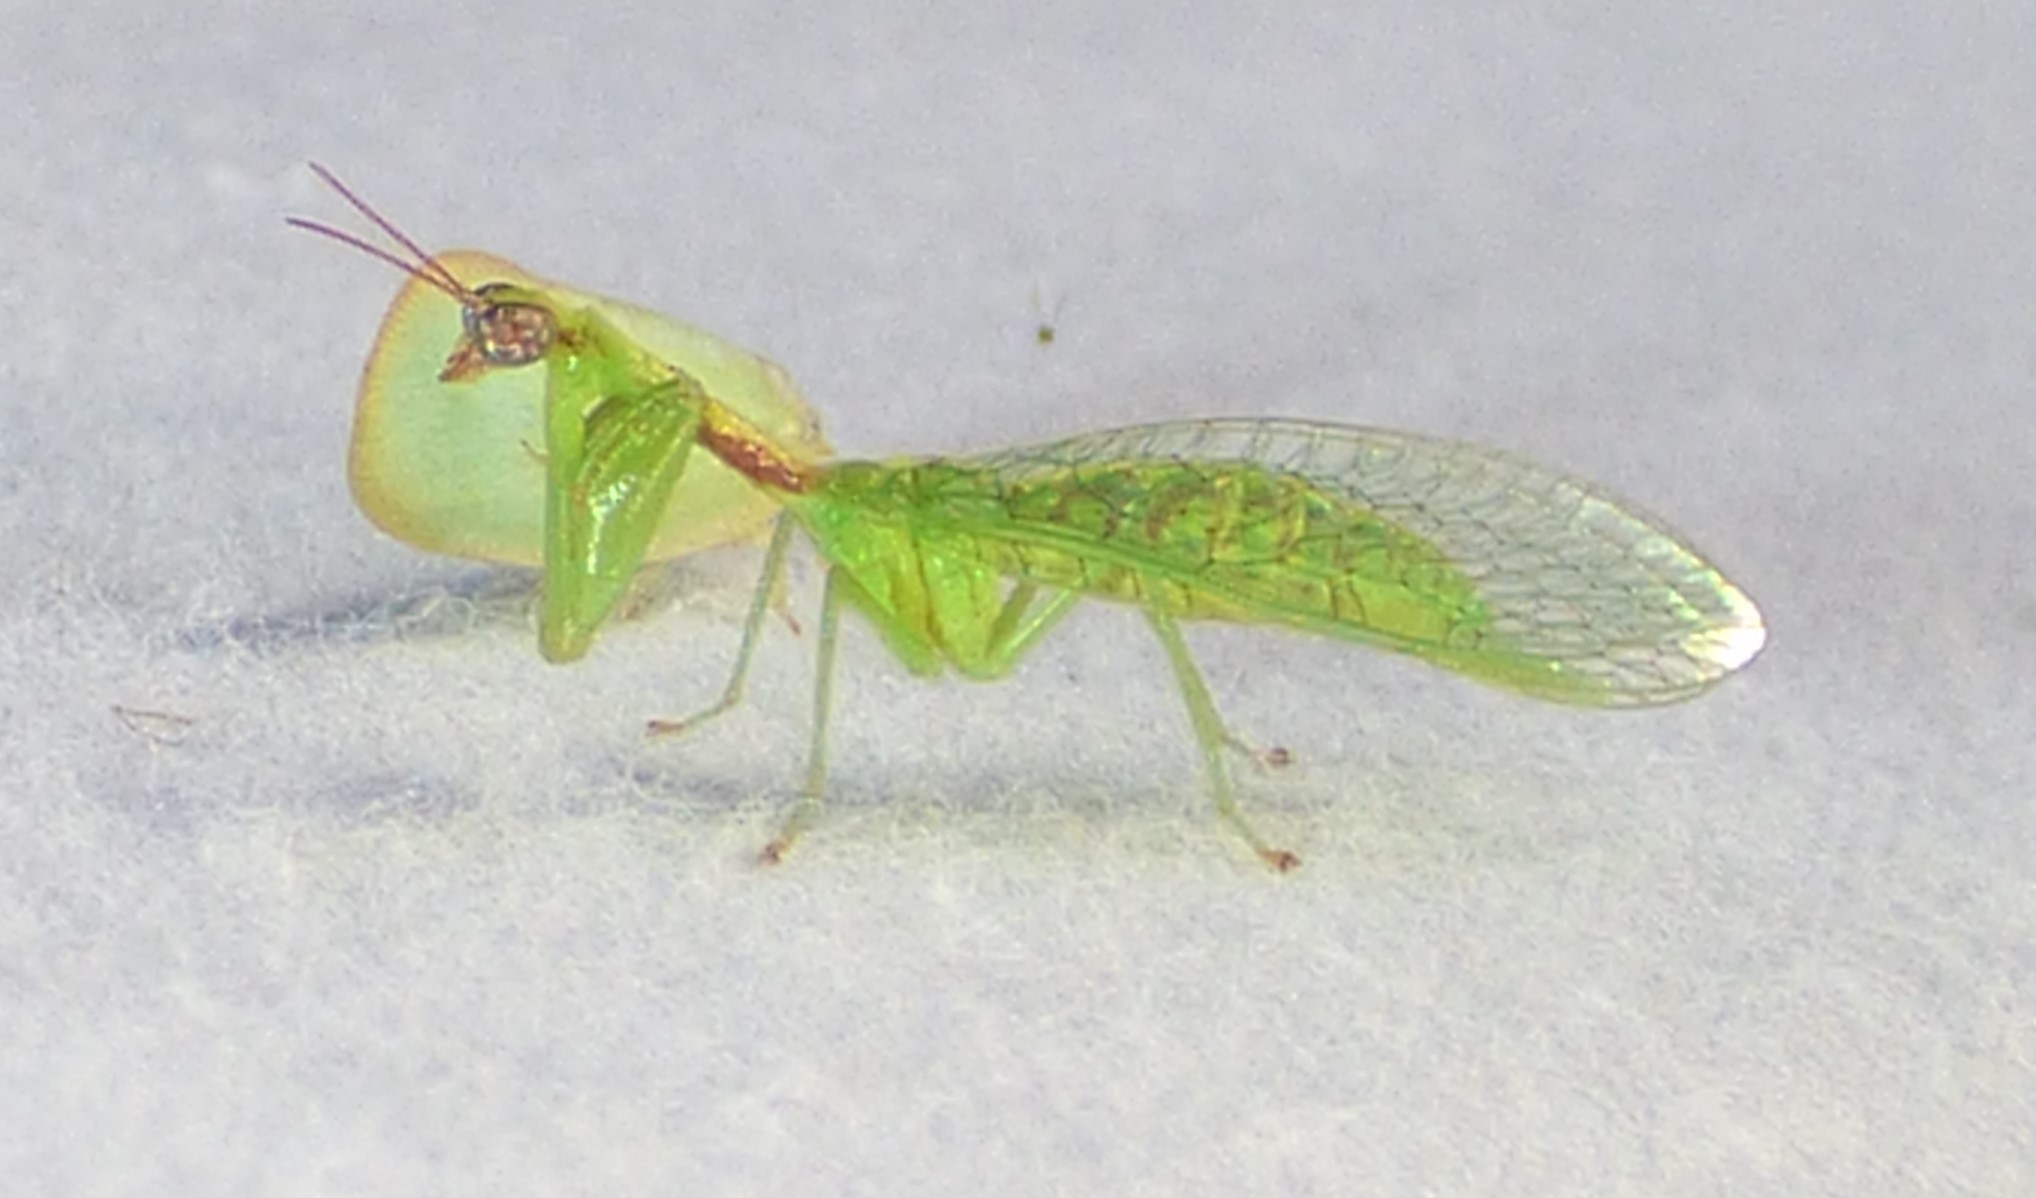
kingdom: Animalia
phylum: Arthropoda
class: Insecta
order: Neuroptera
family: Mantispidae
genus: Zeugomantispa
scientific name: Zeugomantispa minuta
